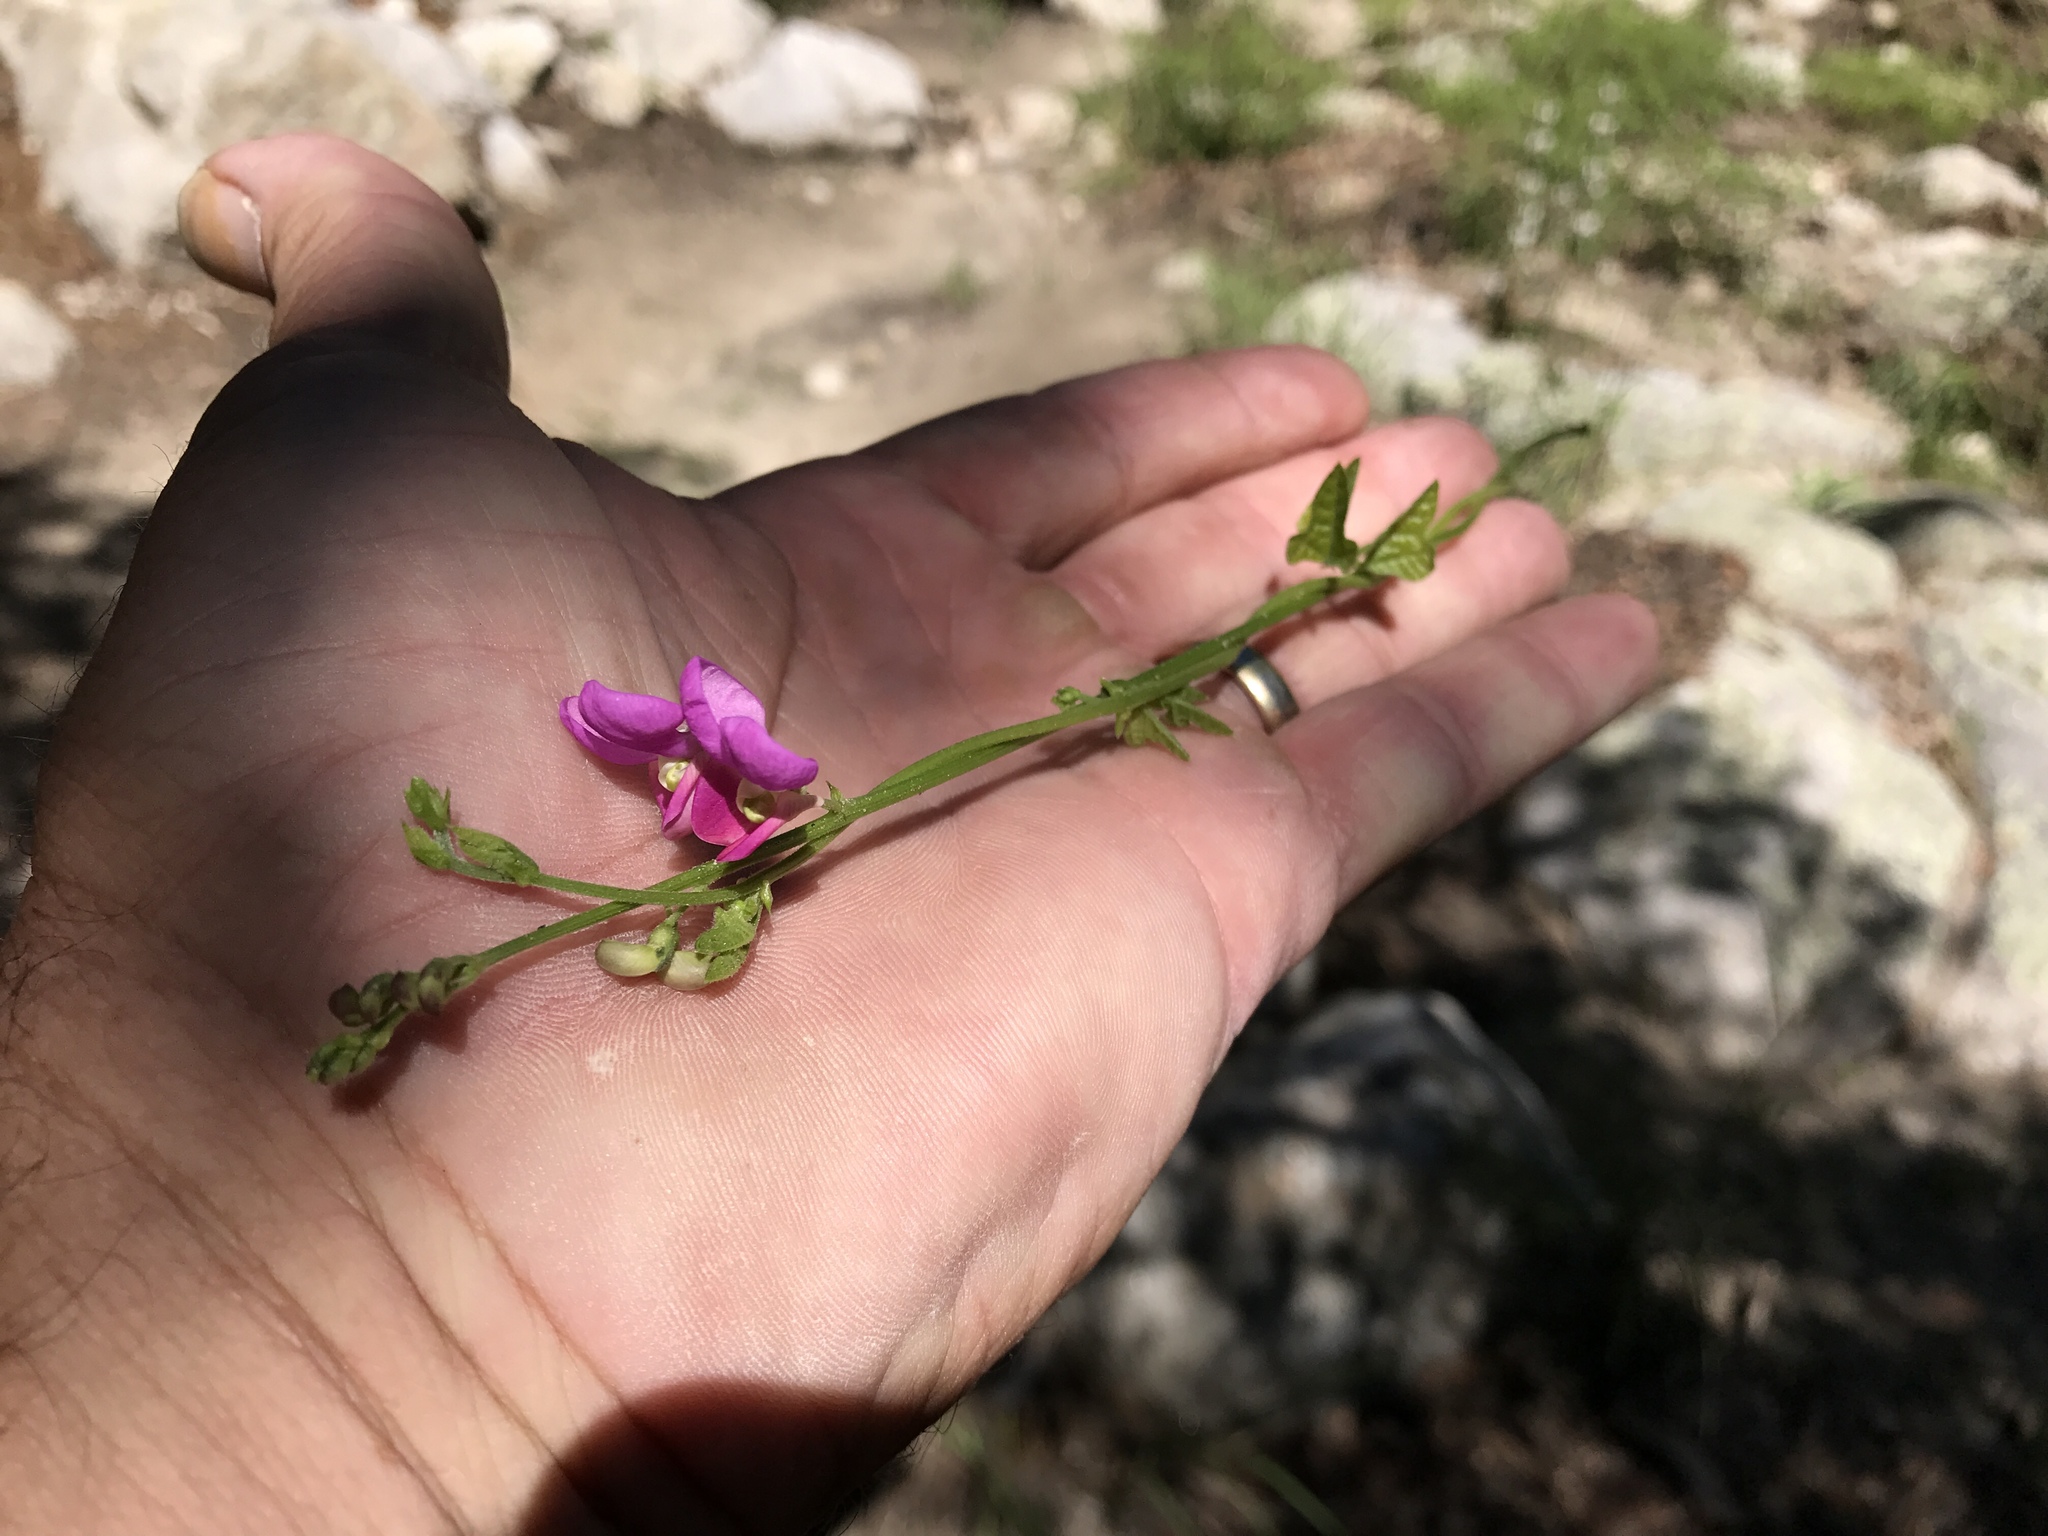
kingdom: Plantae
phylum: Tracheophyta
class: Magnoliopsida
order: Fabales
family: Fabaceae
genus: Phaseolus
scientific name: Phaseolus pedicellatus
